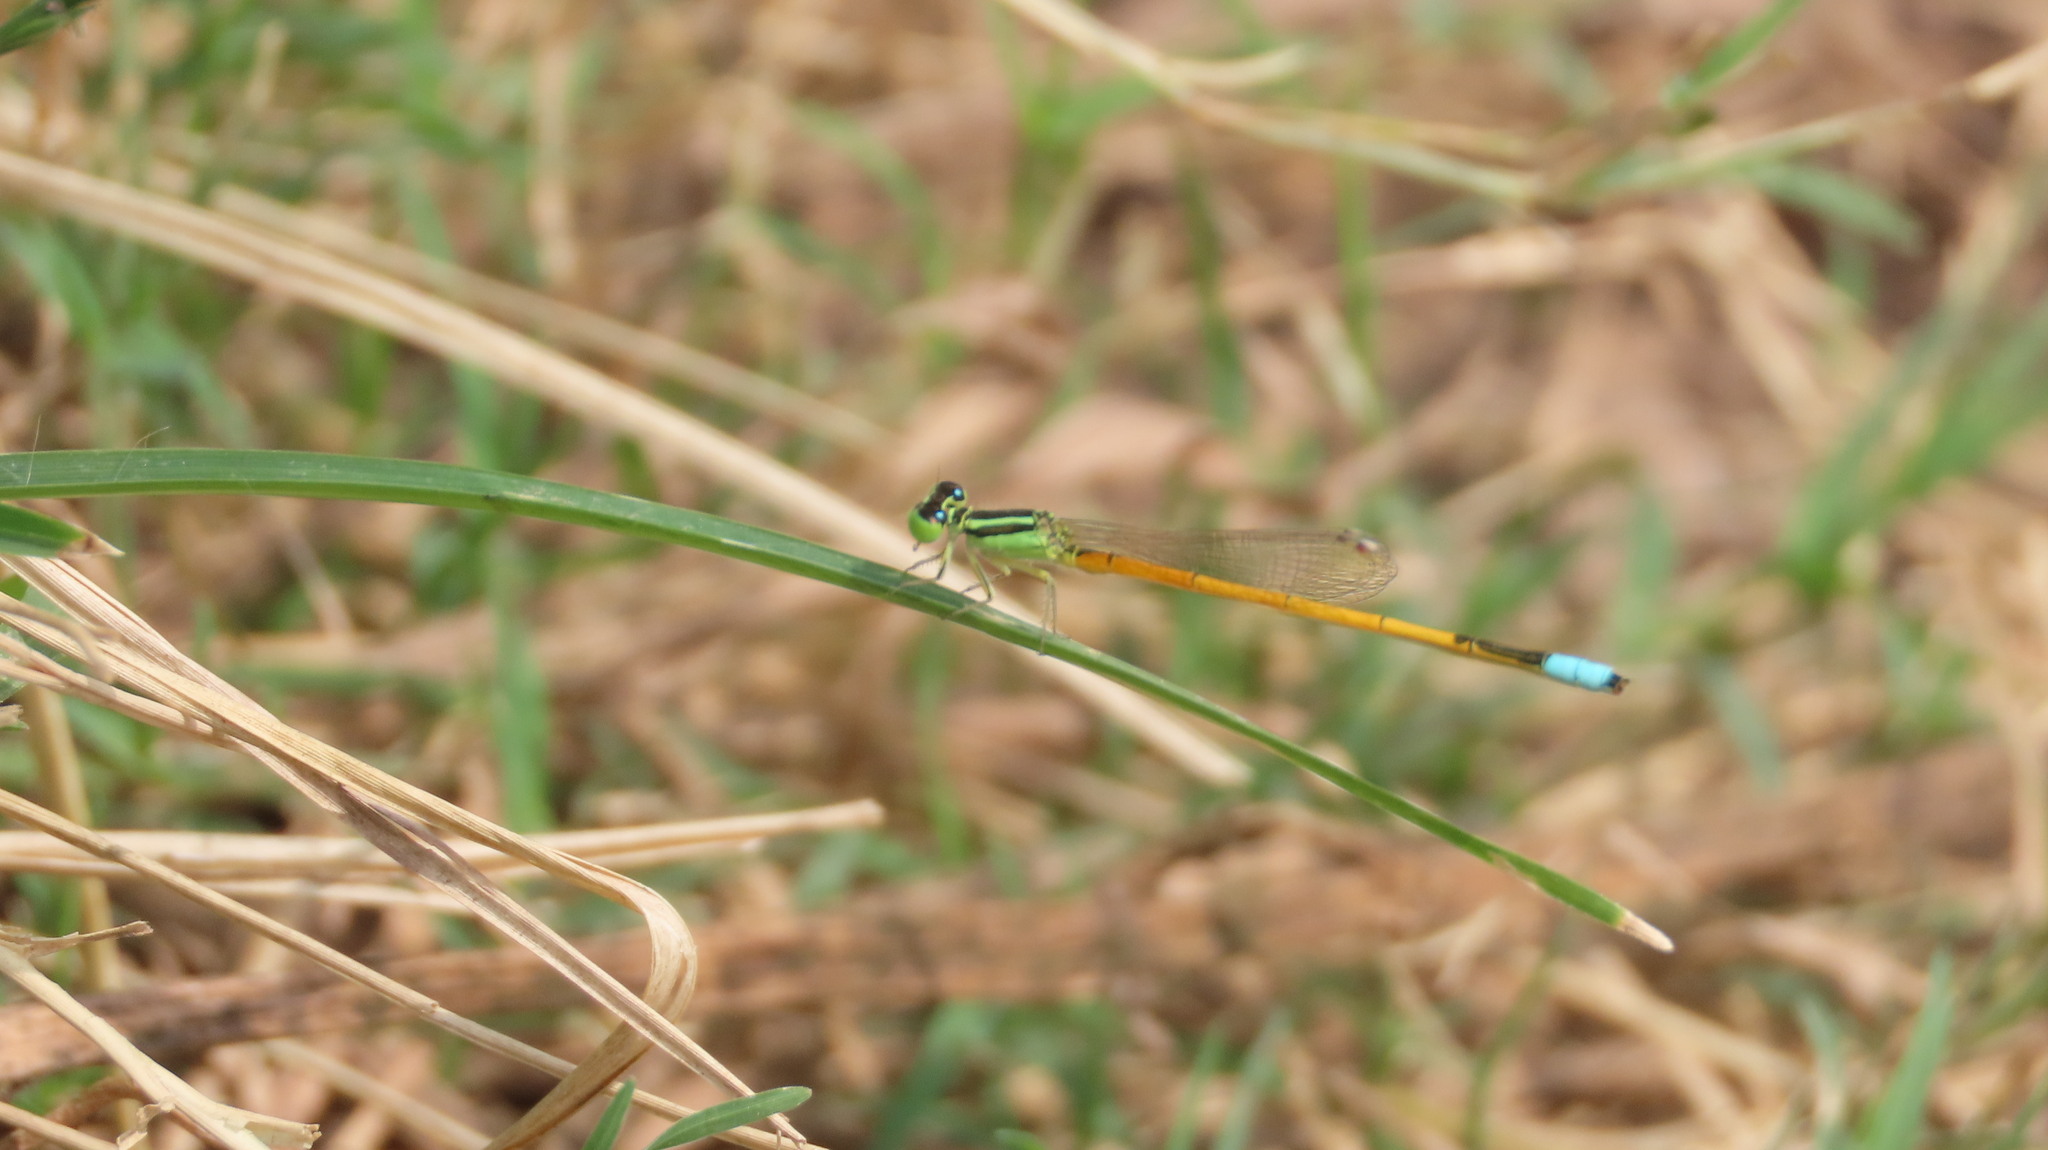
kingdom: Animalia
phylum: Arthropoda
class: Insecta
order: Odonata
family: Coenagrionidae
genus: Ischnura
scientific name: Ischnura rubilio
